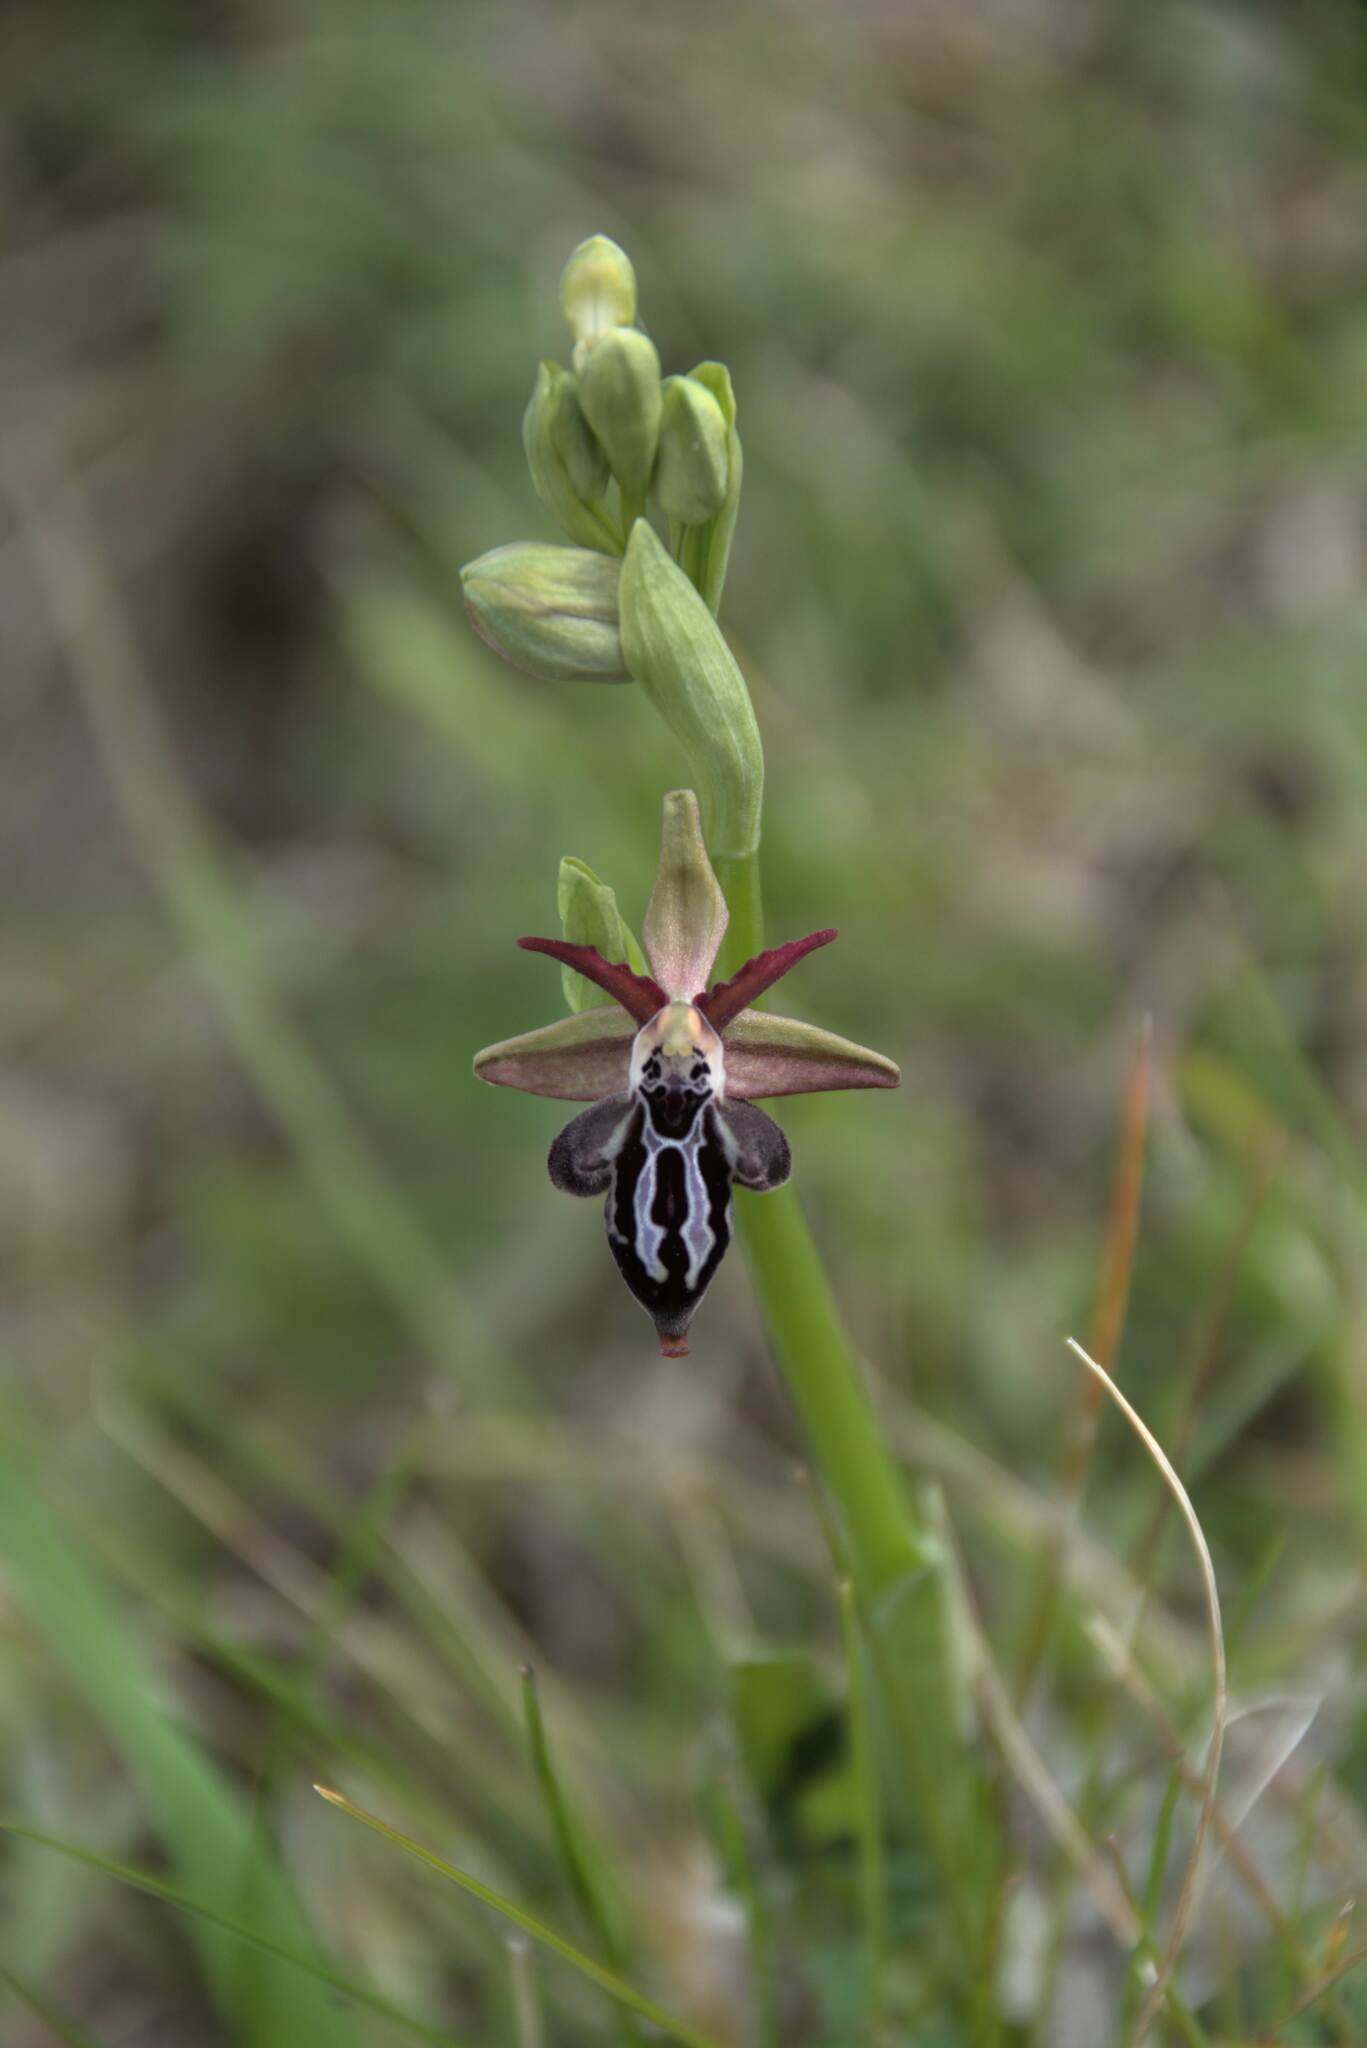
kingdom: Plantae
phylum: Tracheophyta
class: Liliopsida
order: Asparagales
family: Orchidaceae
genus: Ophrys
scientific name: Ophrys cretica
